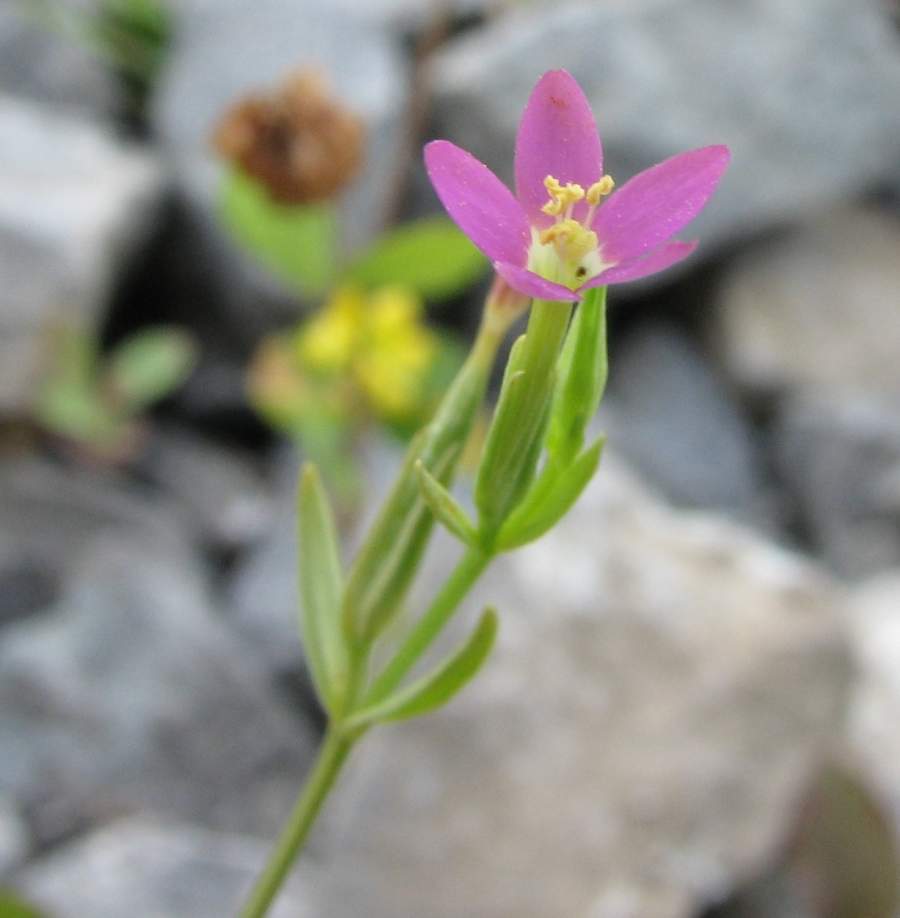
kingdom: Plantae
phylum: Tracheophyta
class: Magnoliopsida
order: Gentianales
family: Gentianaceae
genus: Centaurium
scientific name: Centaurium pulchellum
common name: Lesser centaury
